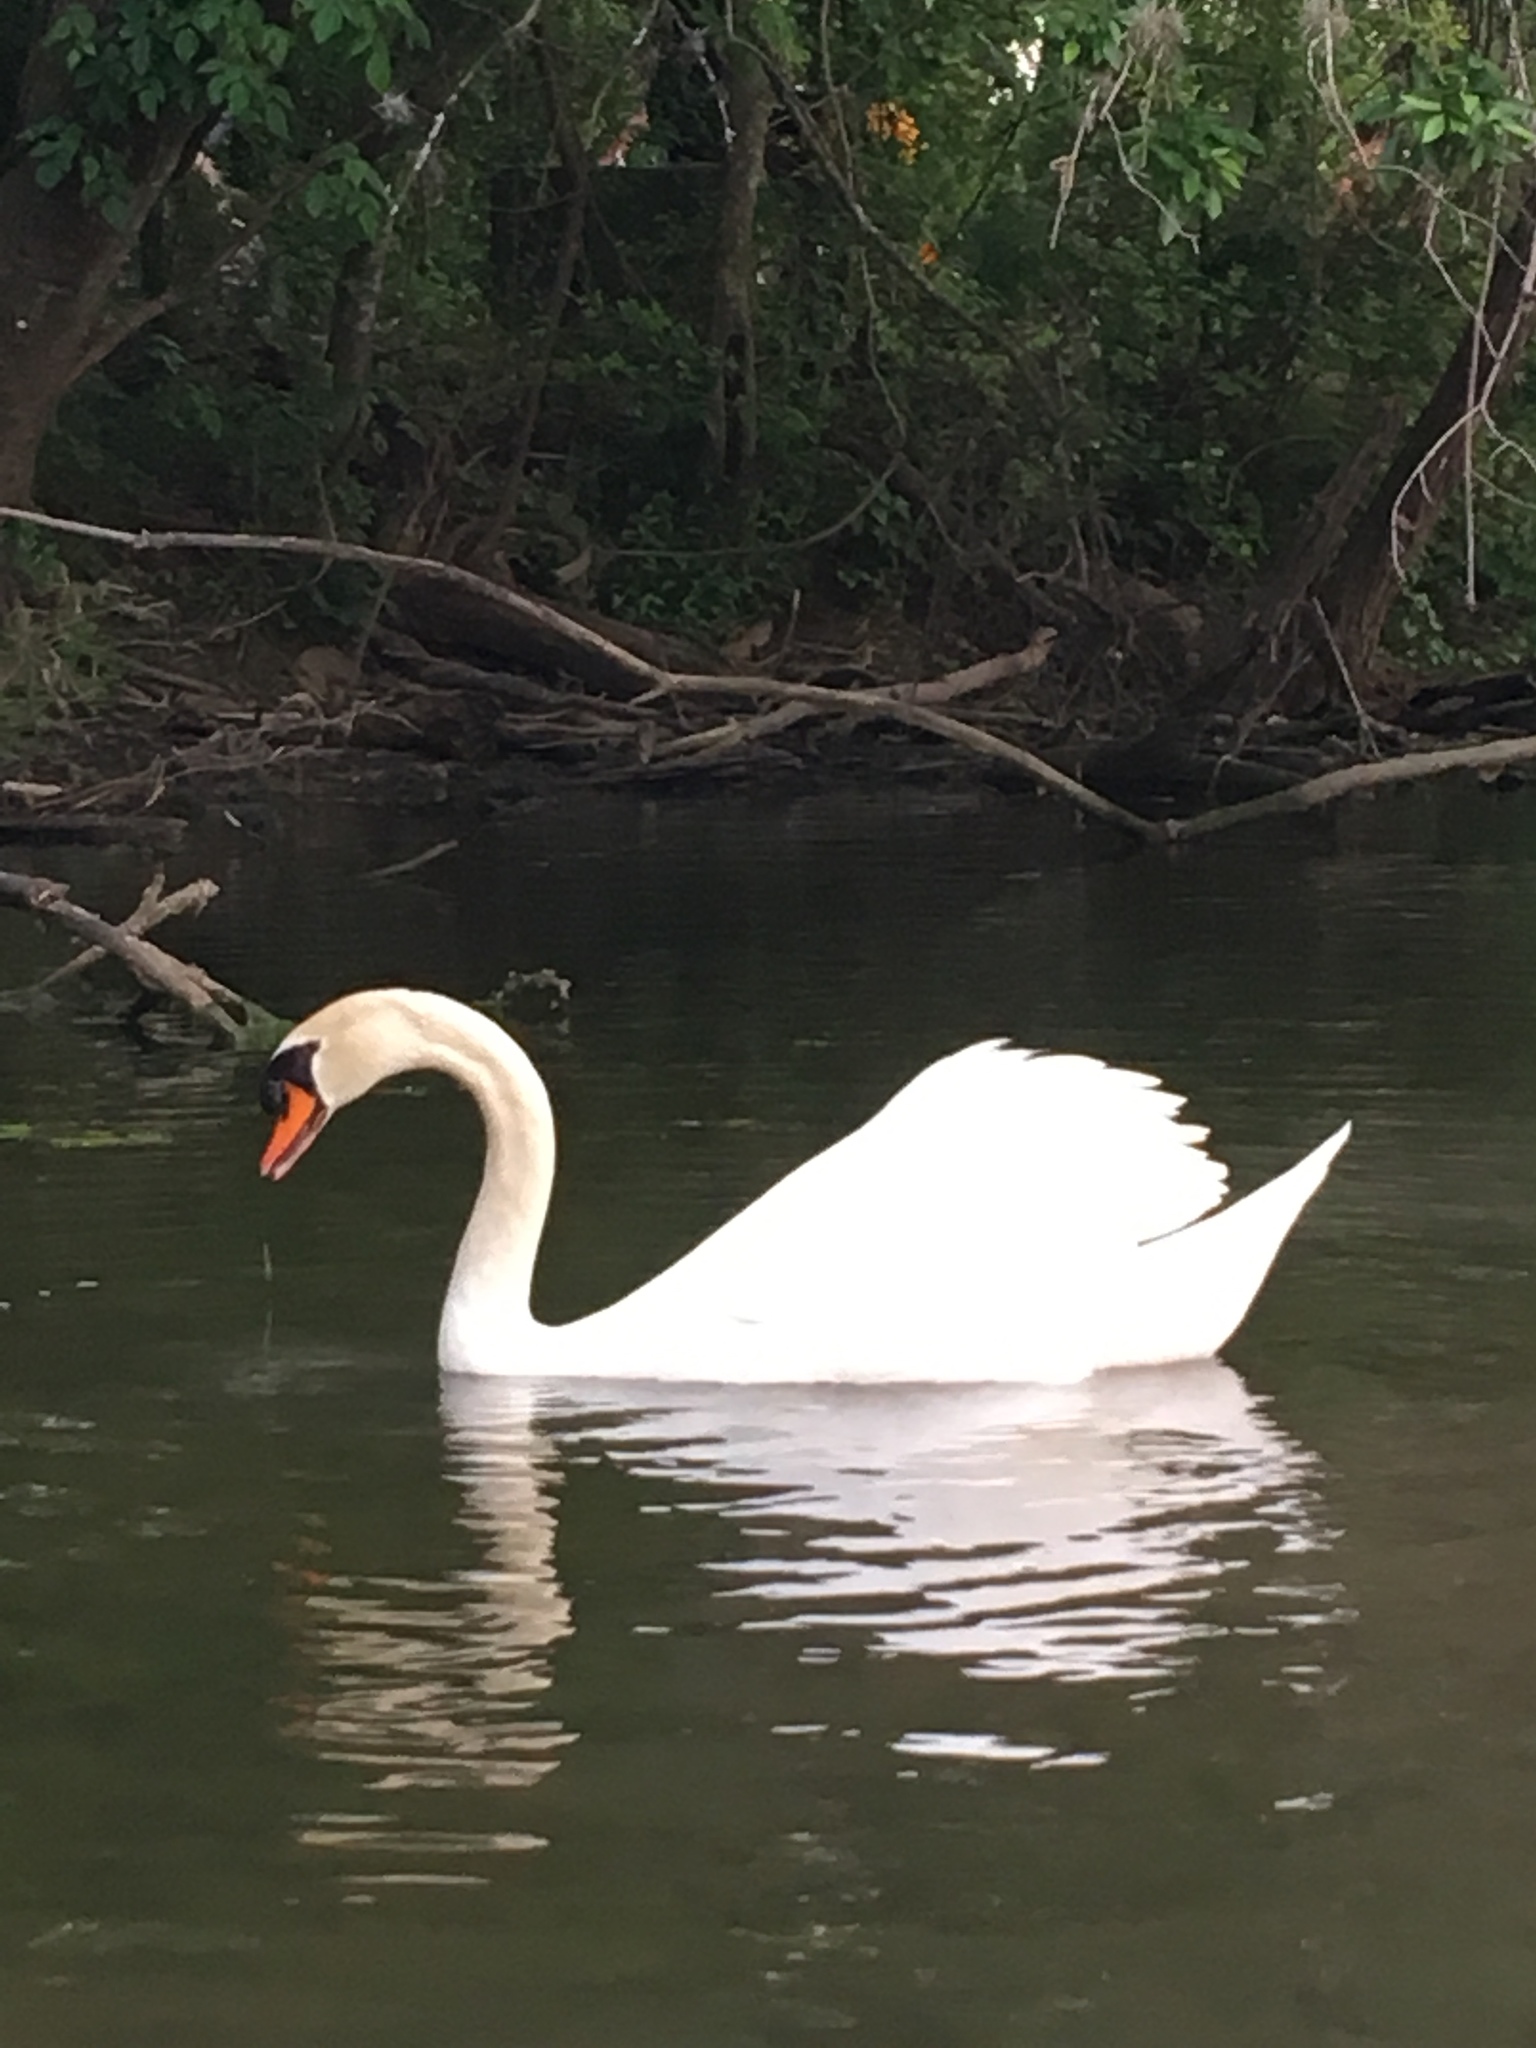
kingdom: Animalia
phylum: Chordata
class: Aves
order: Anseriformes
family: Anatidae
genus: Cygnus
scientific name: Cygnus olor
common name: Mute swan
